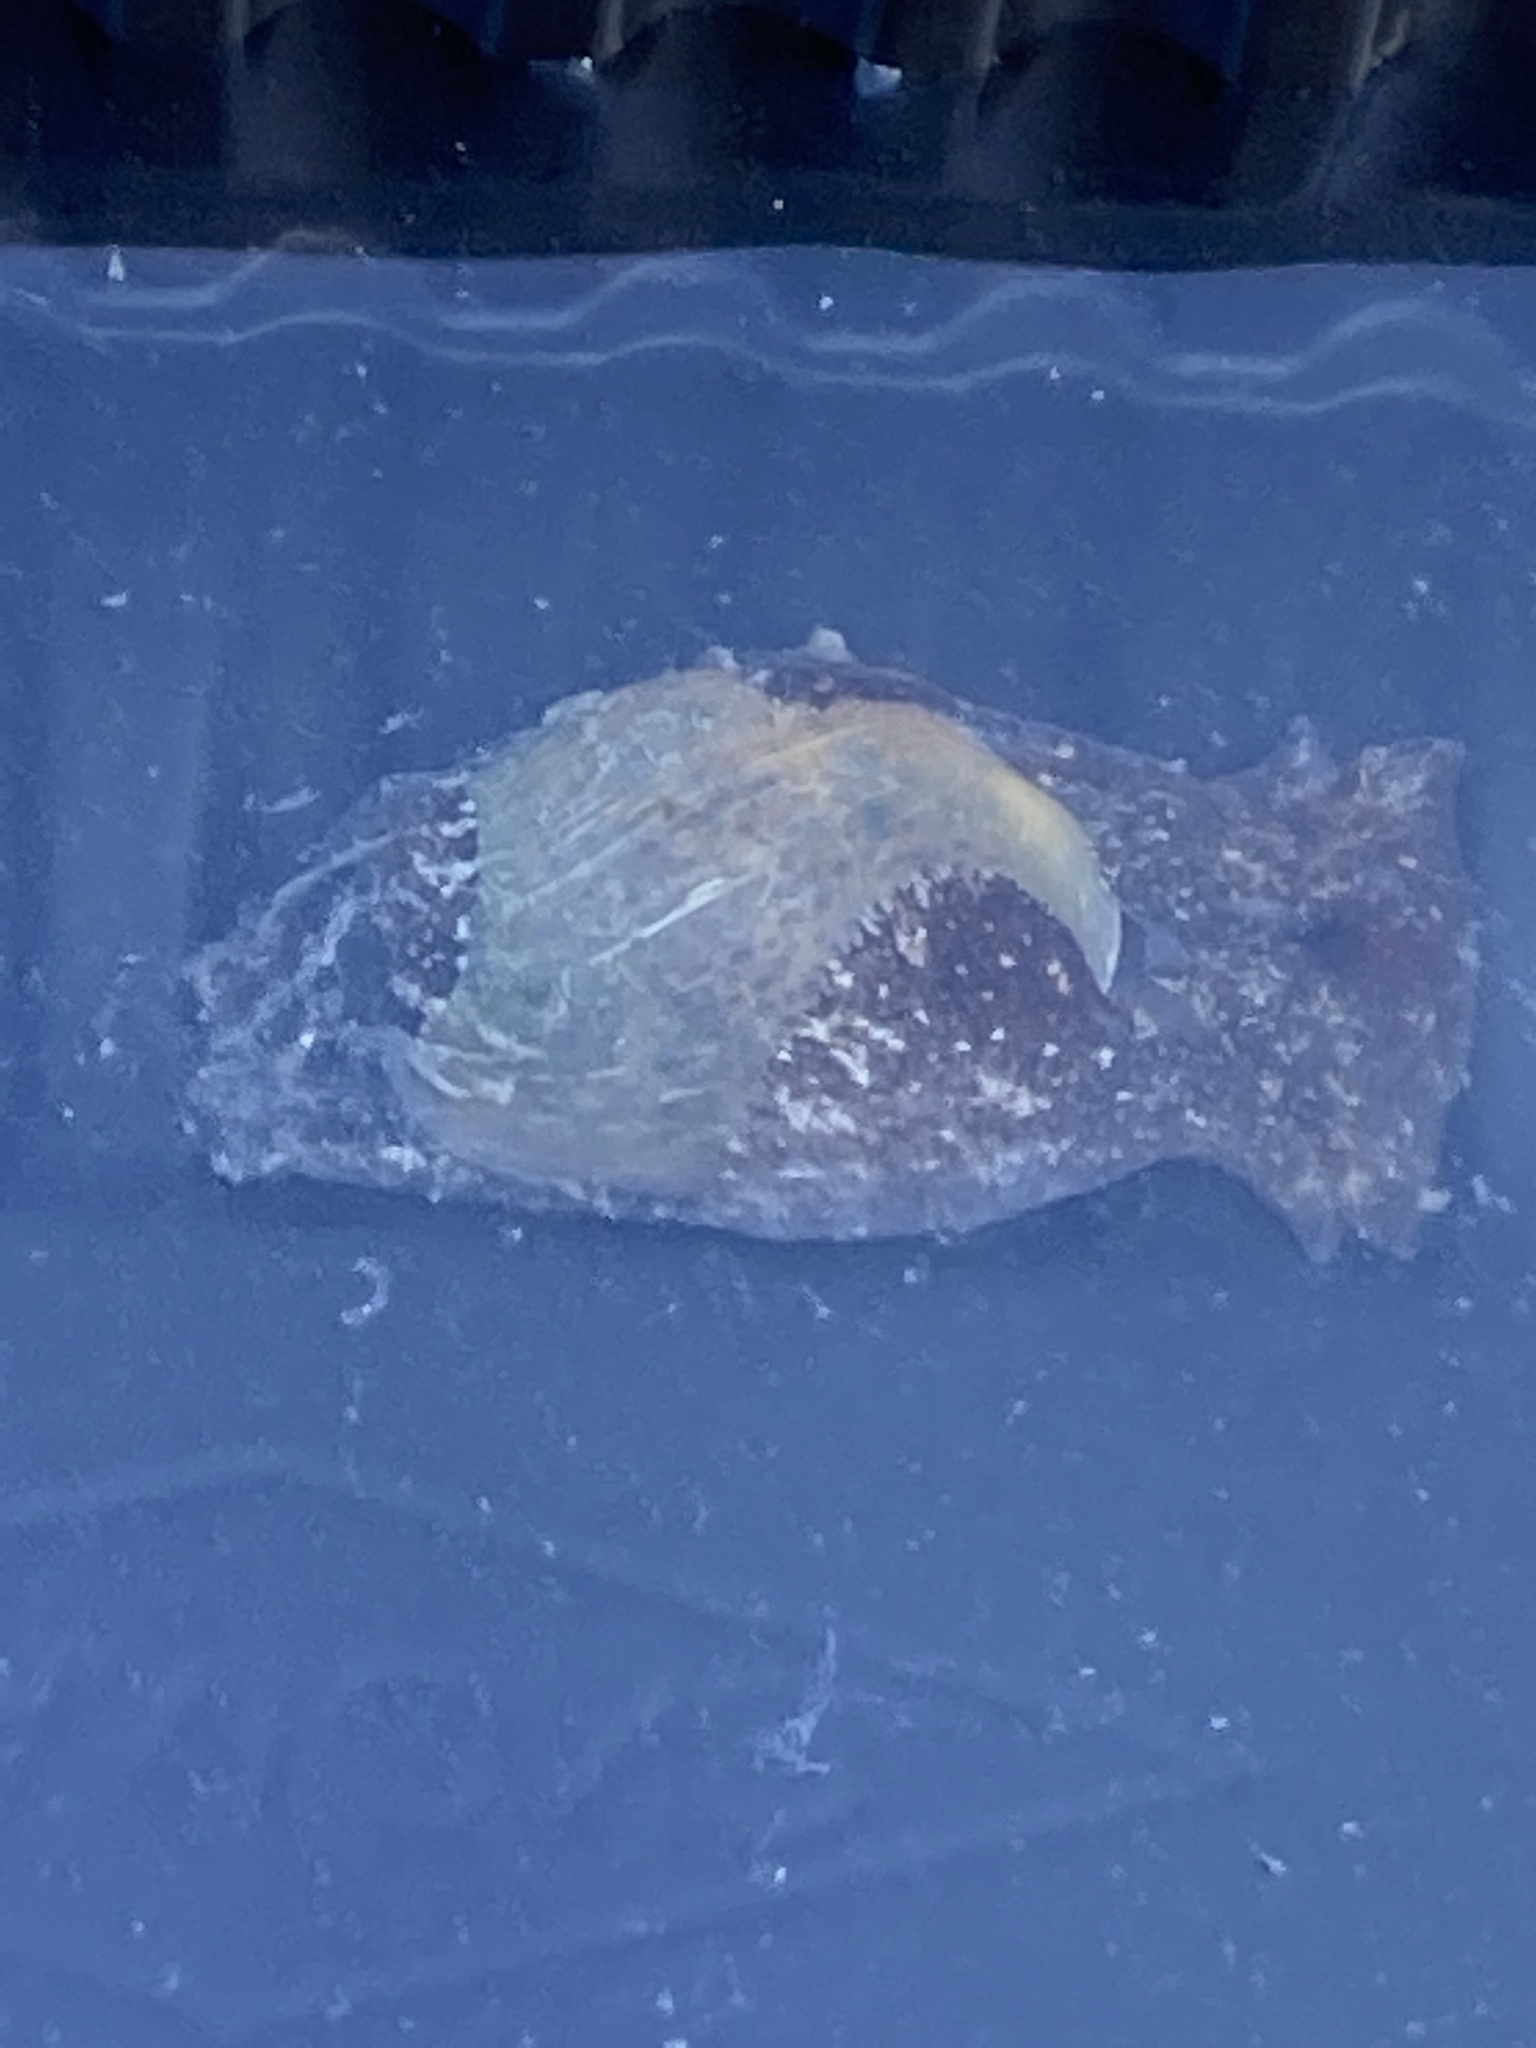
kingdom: Animalia
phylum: Mollusca
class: Gastropoda
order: Cephalaspidea
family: Haminoeidae
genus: Haloa
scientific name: Haloa japonica
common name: Japanese bubble snail
